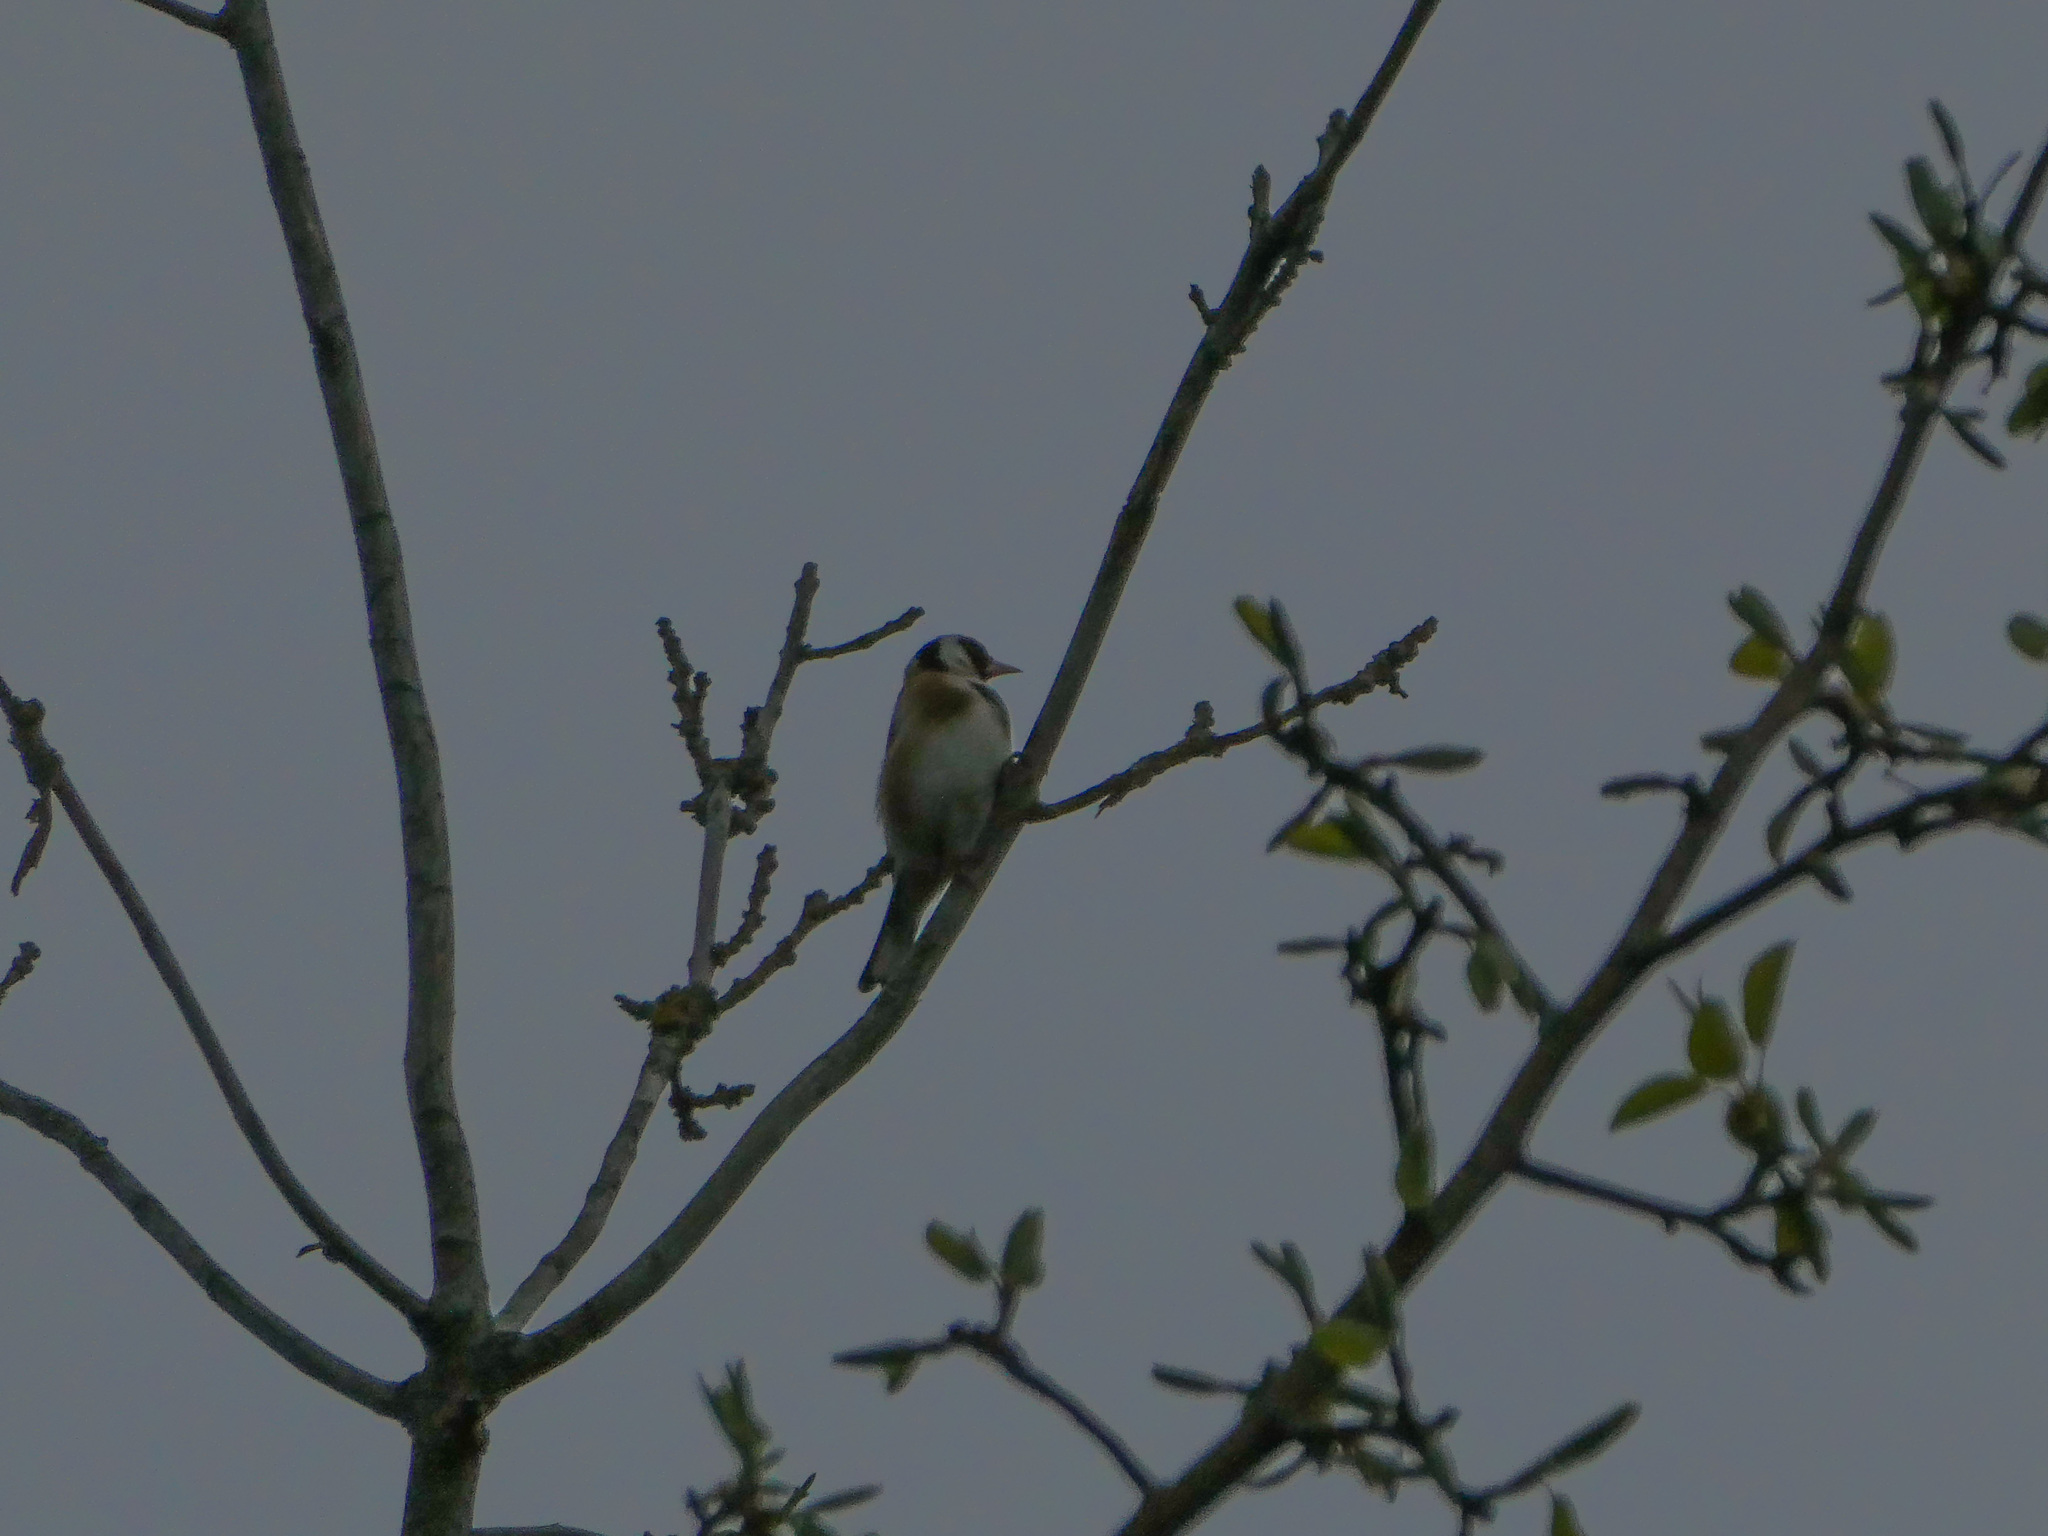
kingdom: Animalia
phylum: Chordata
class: Aves
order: Passeriformes
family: Fringillidae
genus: Carduelis
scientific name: Carduelis carduelis
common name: European goldfinch
